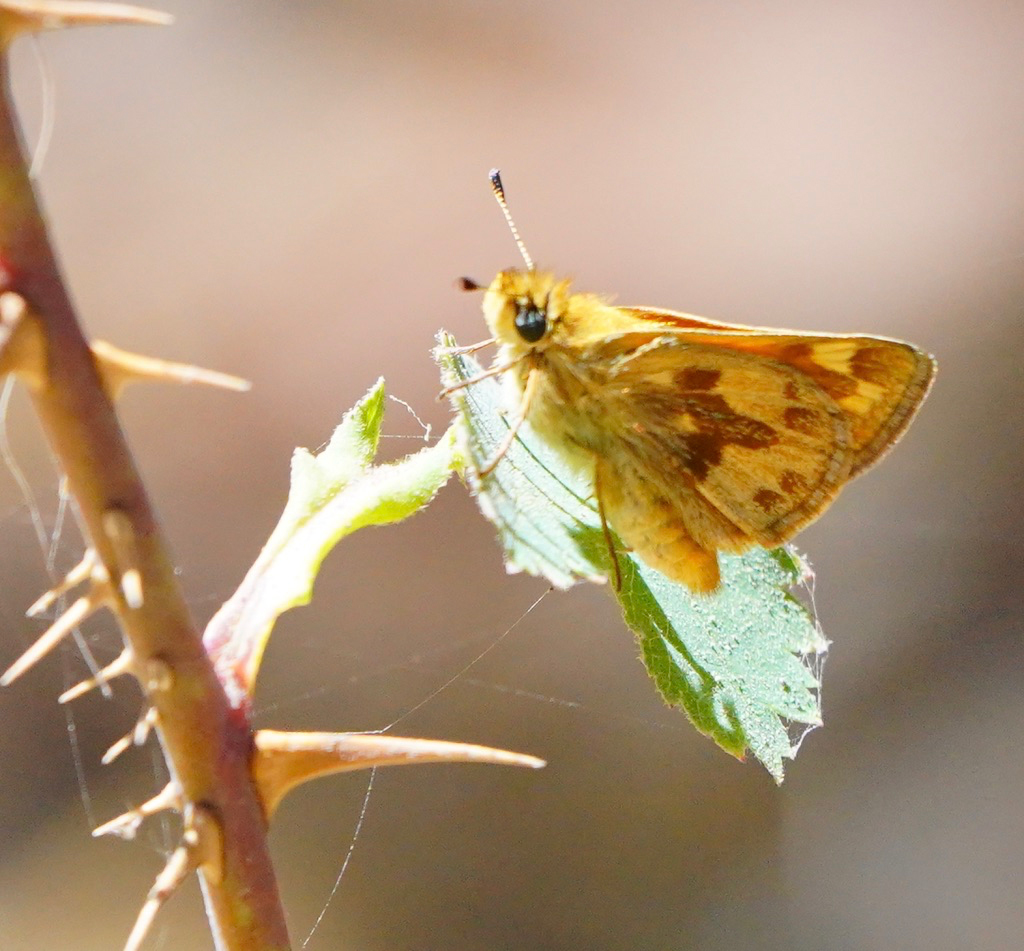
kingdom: Animalia
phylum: Arthropoda
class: Insecta
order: Lepidoptera
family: Hesperiidae
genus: Ochlodes
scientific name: Ochlodes sylvanoides
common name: Woodland skipper
